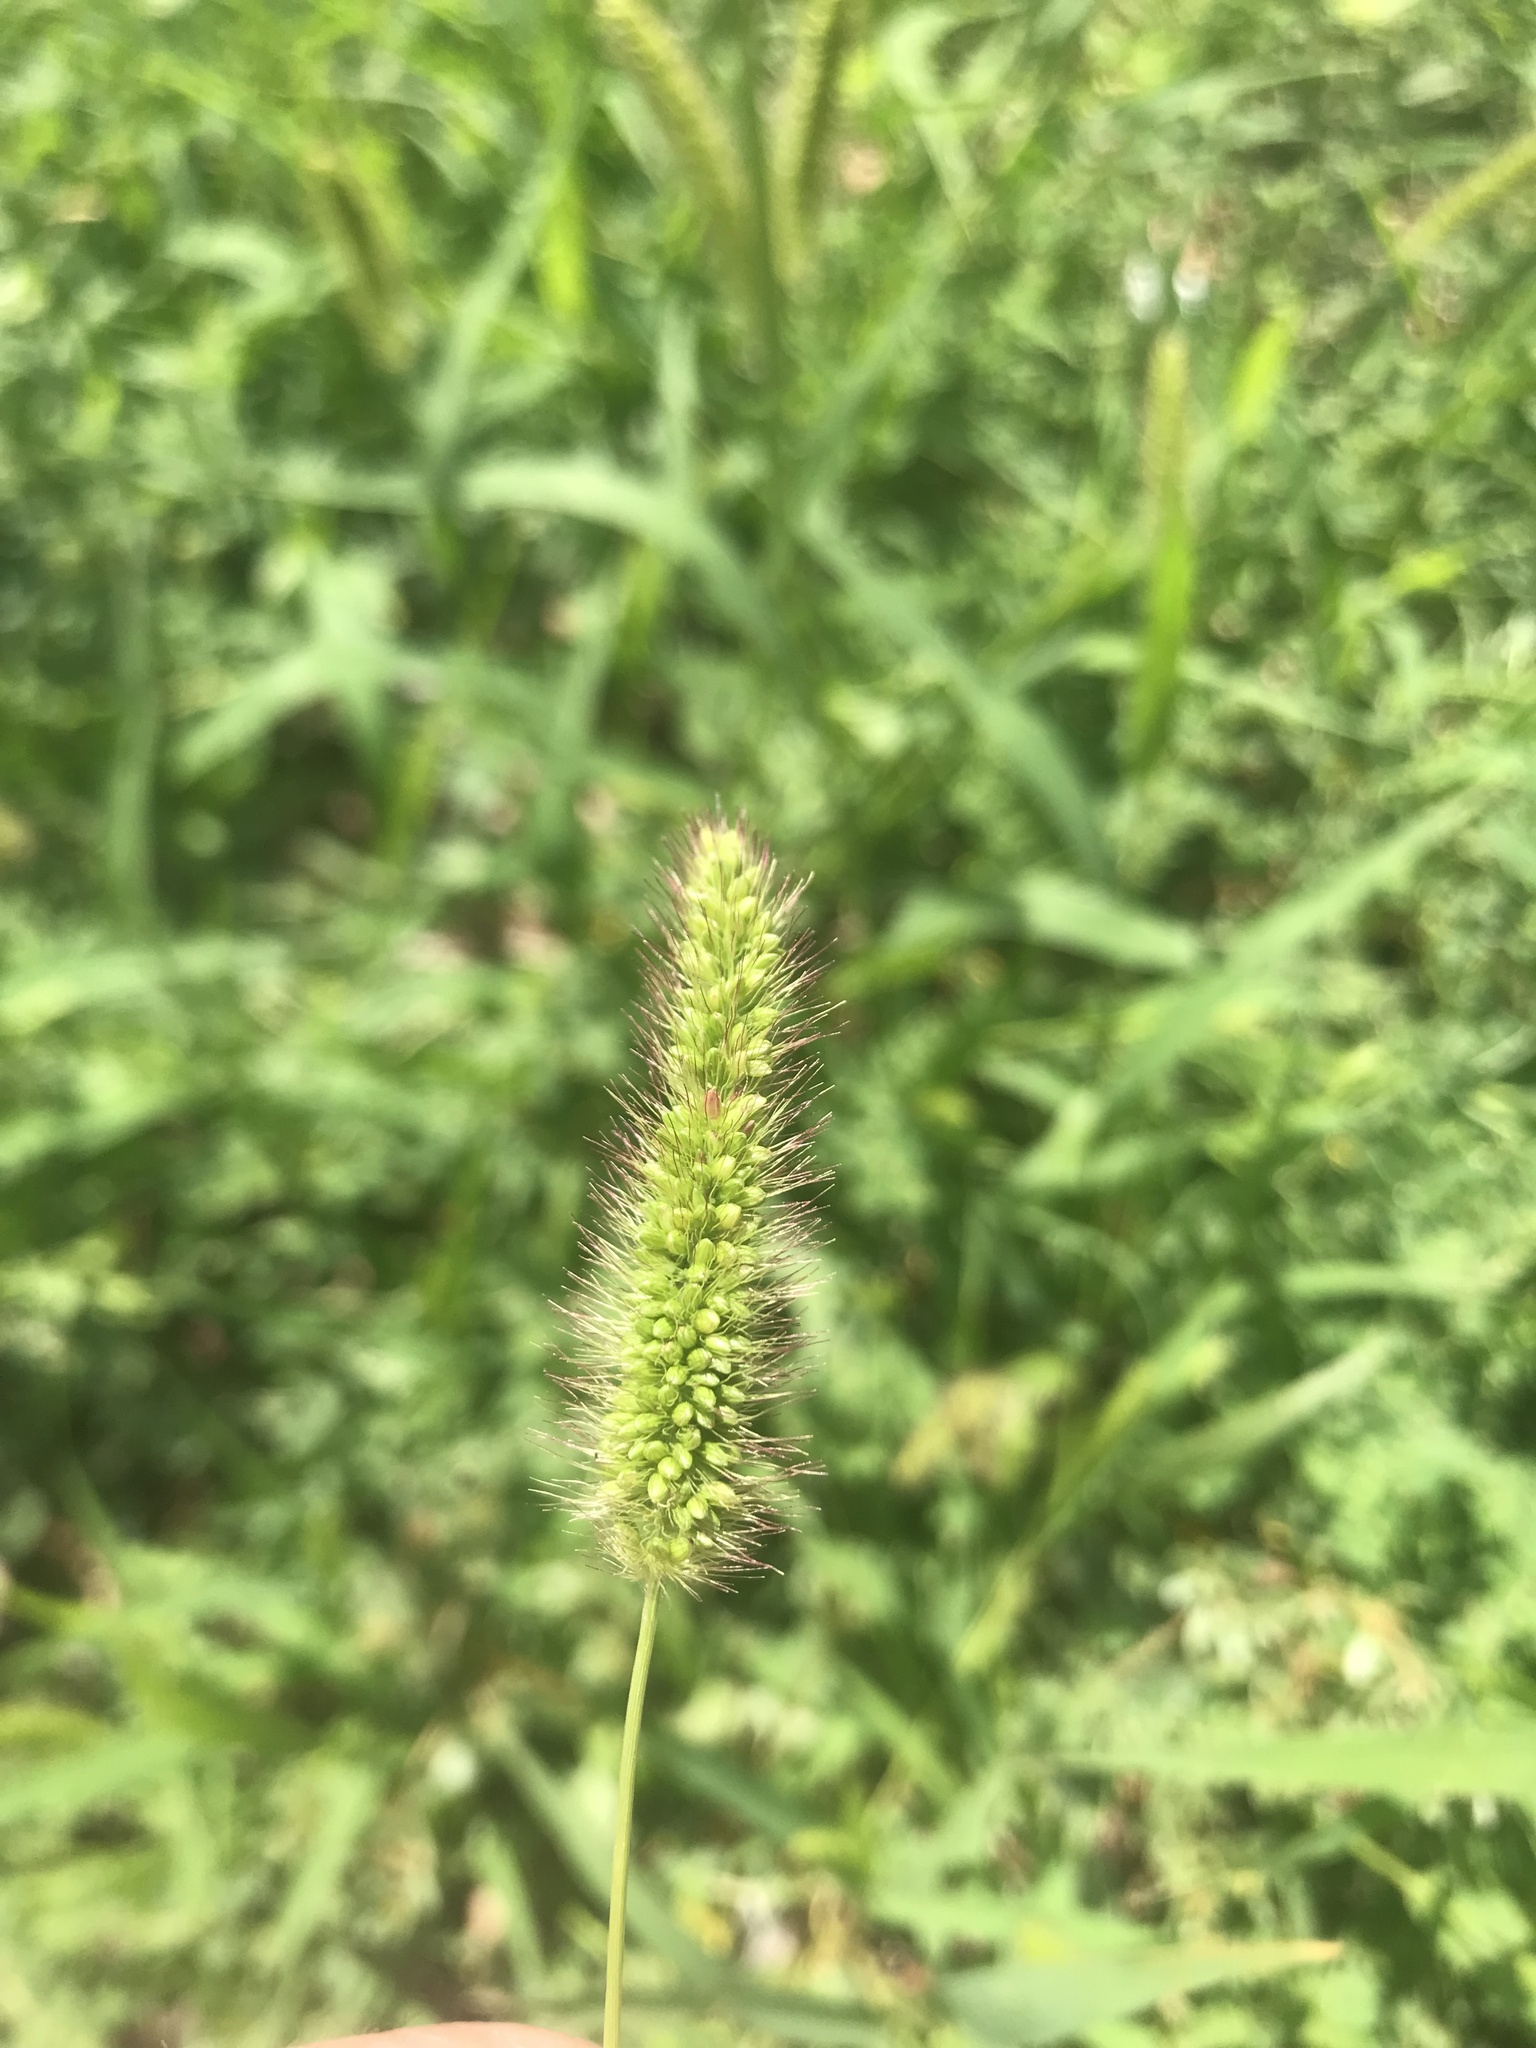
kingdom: Plantae
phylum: Tracheophyta
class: Liliopsida
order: Poales
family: Poaceae
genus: Setaria
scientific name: Setaria viridis
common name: Green bristlegrass
